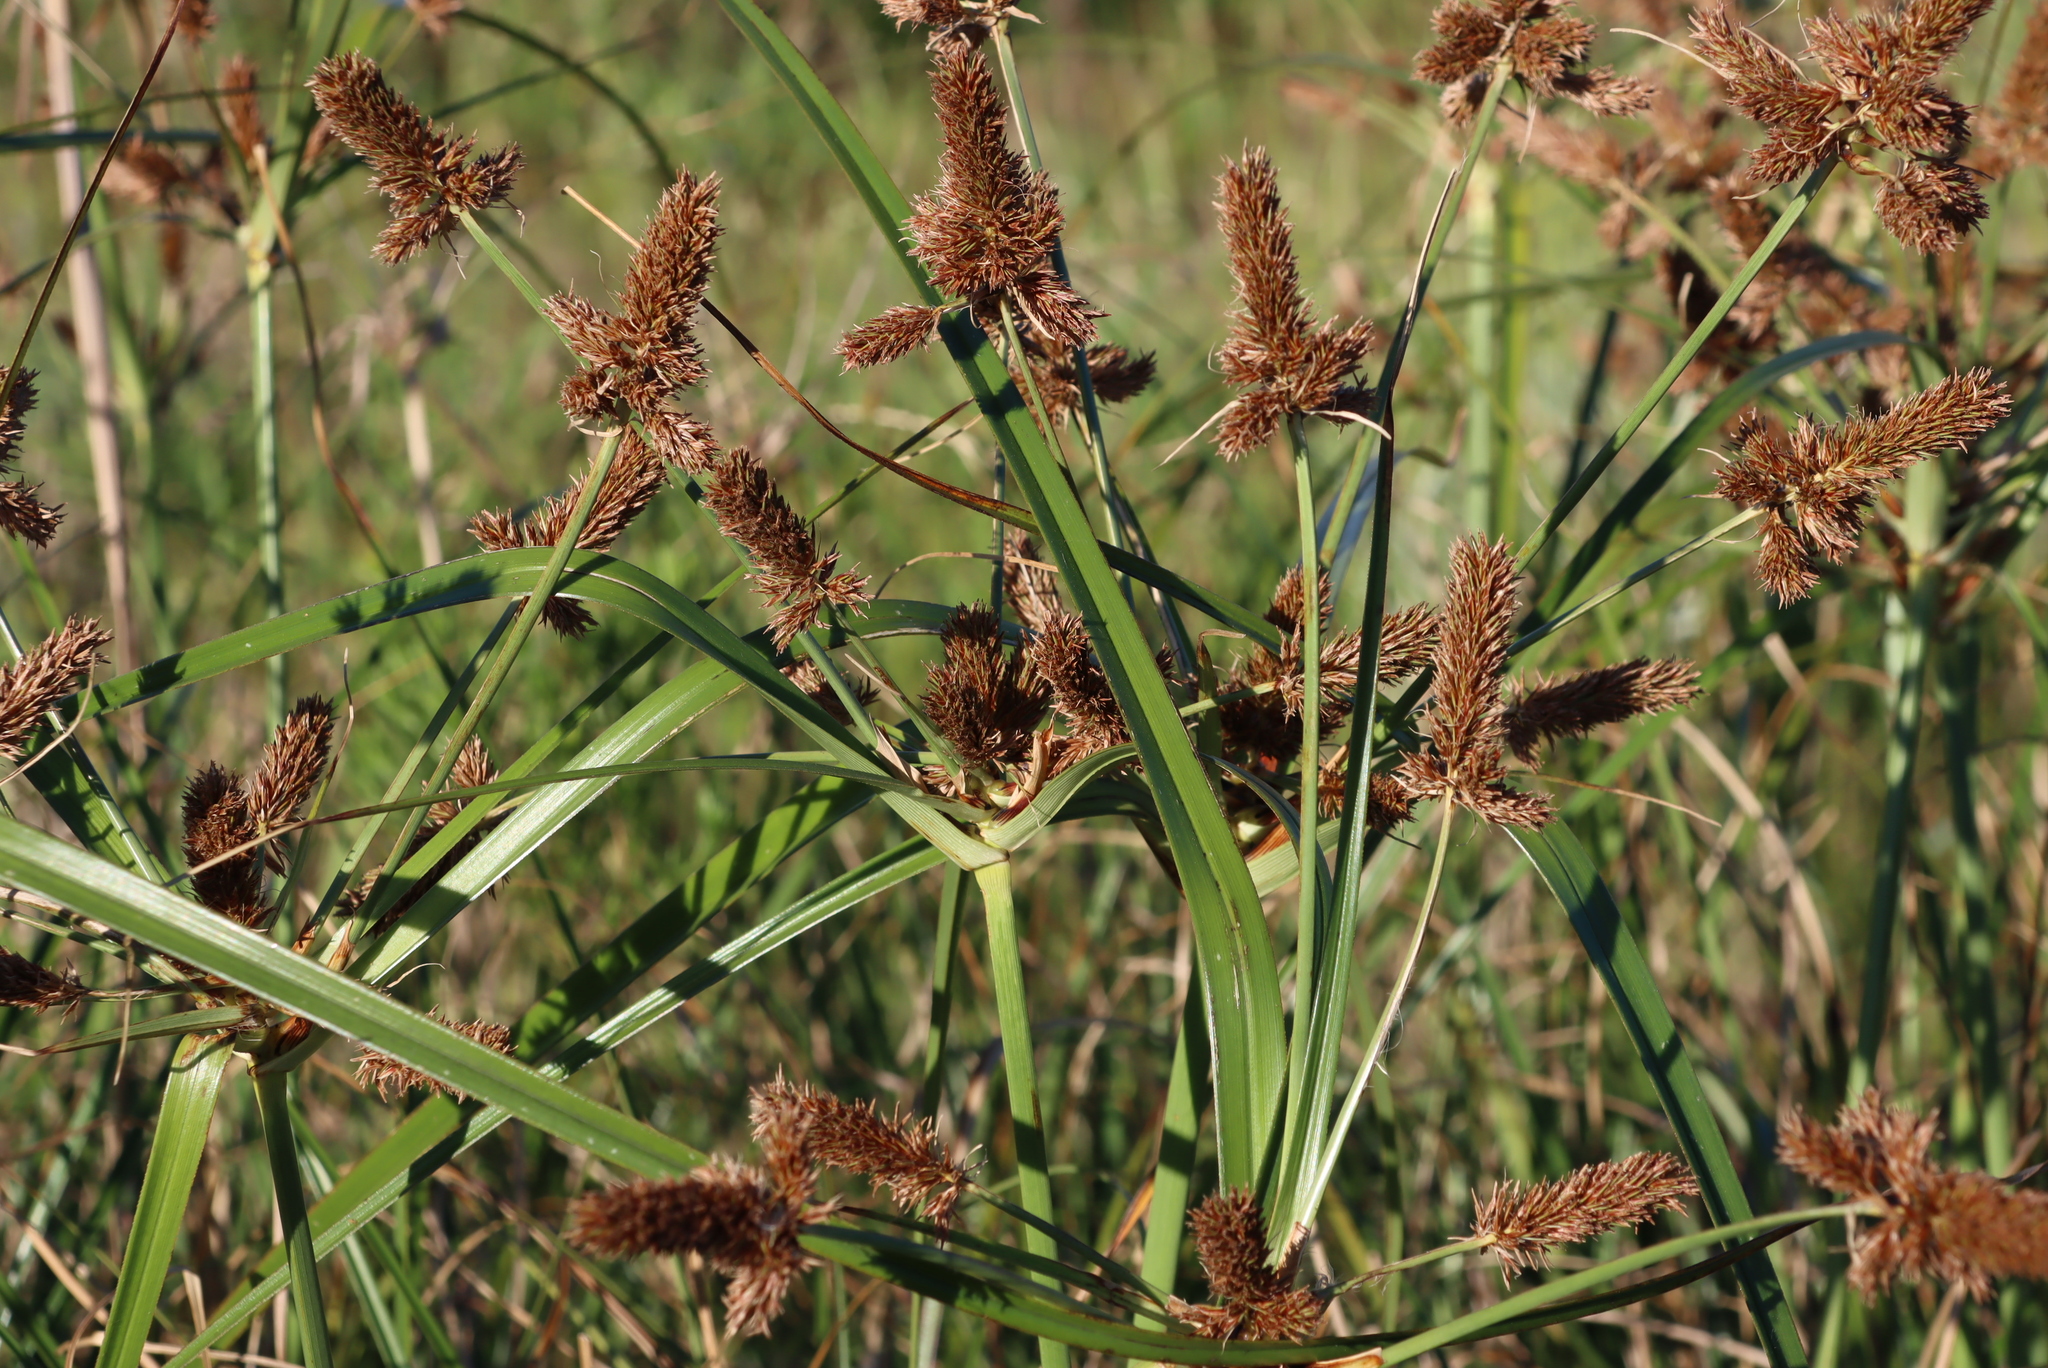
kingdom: Plantae
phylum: Tracheophyta
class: Liliopsida
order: Poales
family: Cyperaceae
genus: Cyperus
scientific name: Cyperus thunbergii
